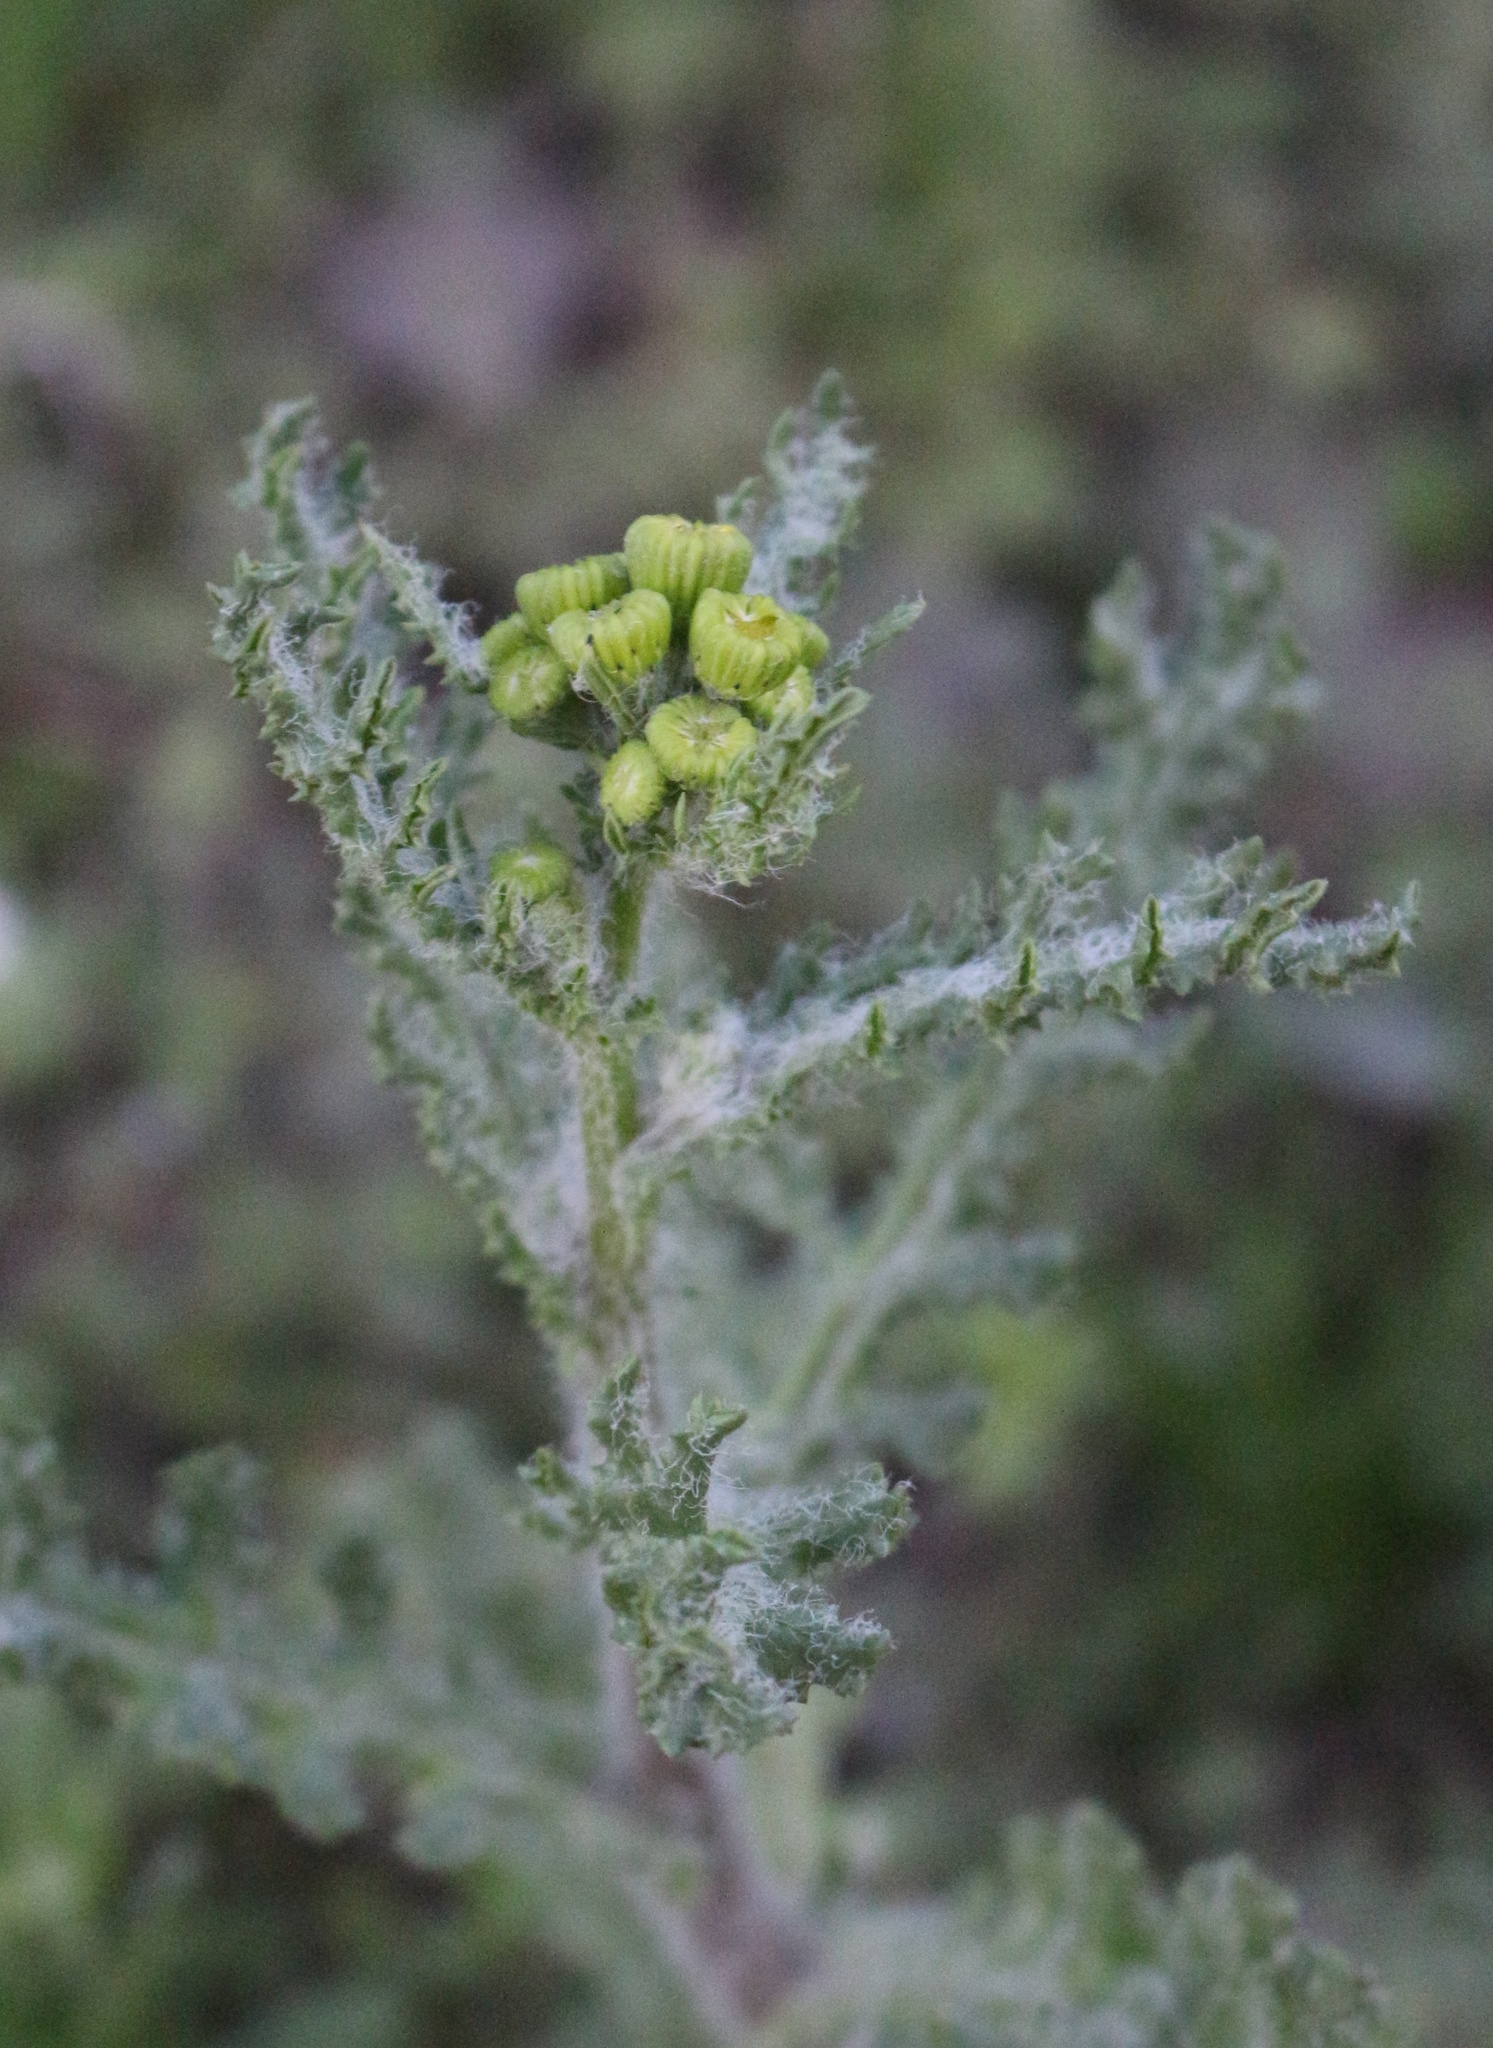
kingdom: Plantae
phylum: Tracheophyta
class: Magnoliopsida
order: Asterales
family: Asteraceae
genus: Senecio
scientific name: Senecio vernalis
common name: Eastern groundsel
